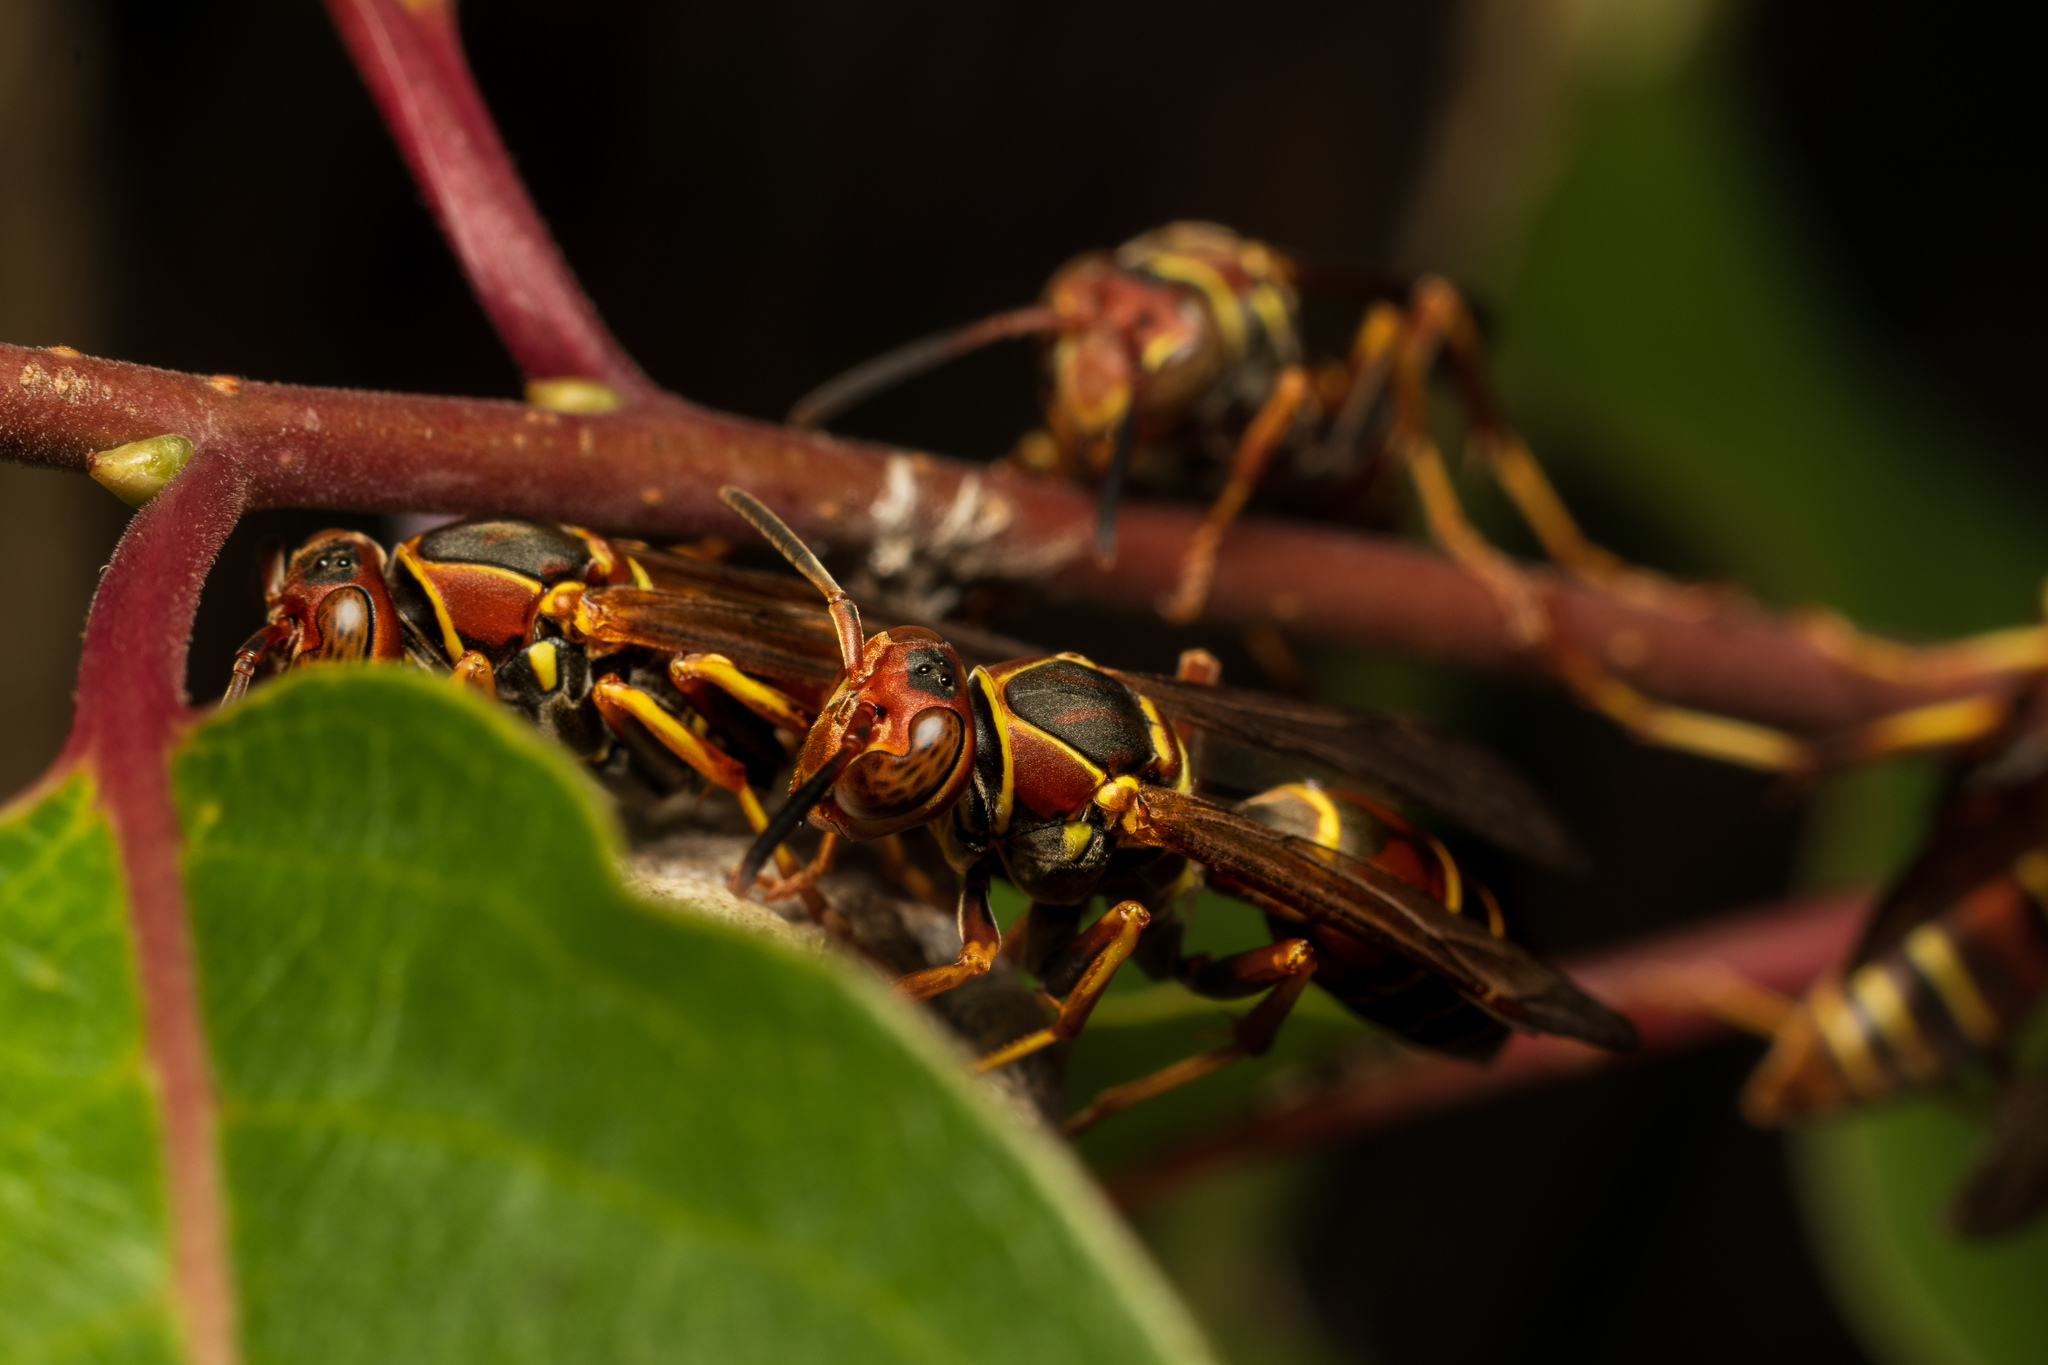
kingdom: Animalia
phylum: Arthropoda
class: Insecta
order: Hymenoptera
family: Eumenidae
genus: Polistes
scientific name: Polistes dorsalis
